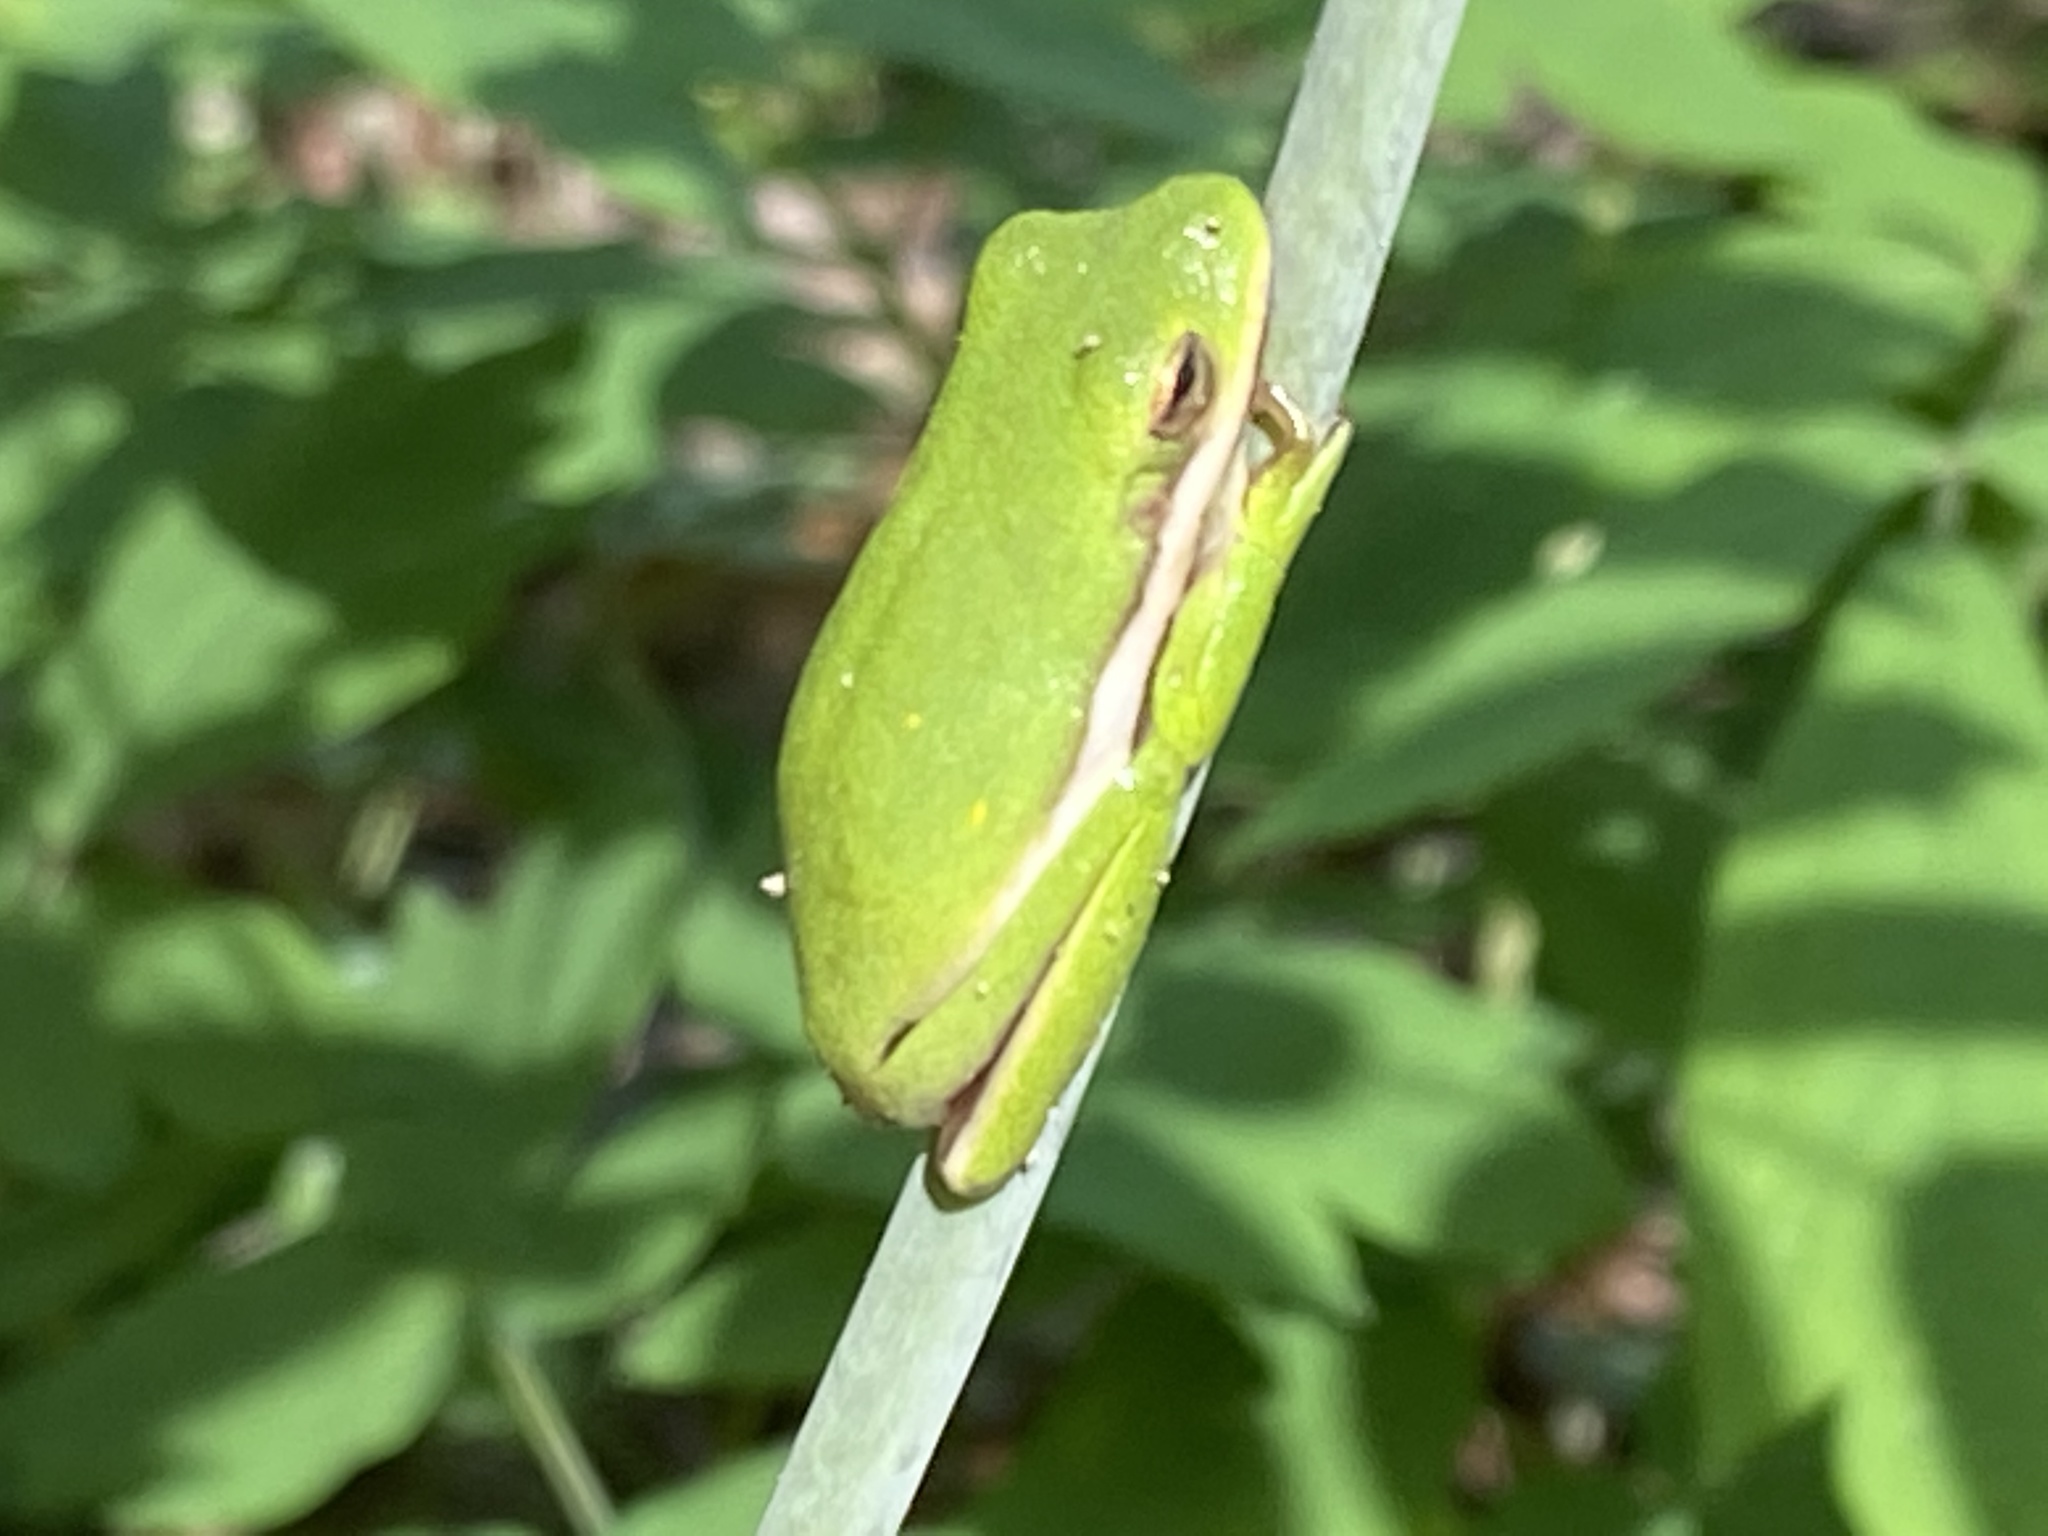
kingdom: Animalia
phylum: Chordata
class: Amphibia
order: Anura
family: Hylidae
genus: Dryophytes
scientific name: Dryophytes cinereus
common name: Green treefrog
